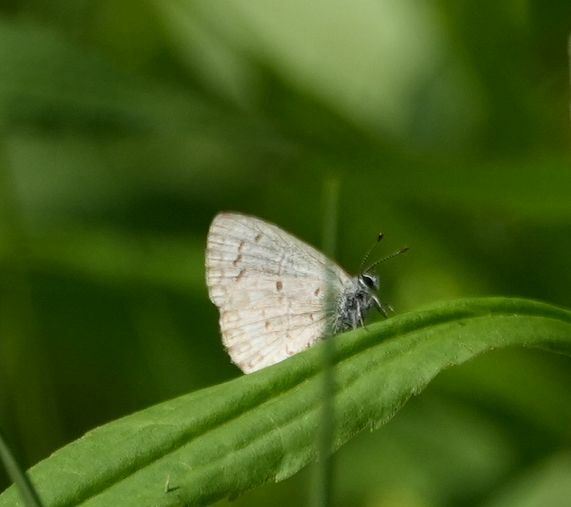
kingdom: Animalia
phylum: Arthropoda
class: Insecta
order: Lepidoptera
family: Lycaenidae
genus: Celastrina
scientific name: Celastrina lucia
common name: Lucia azure
